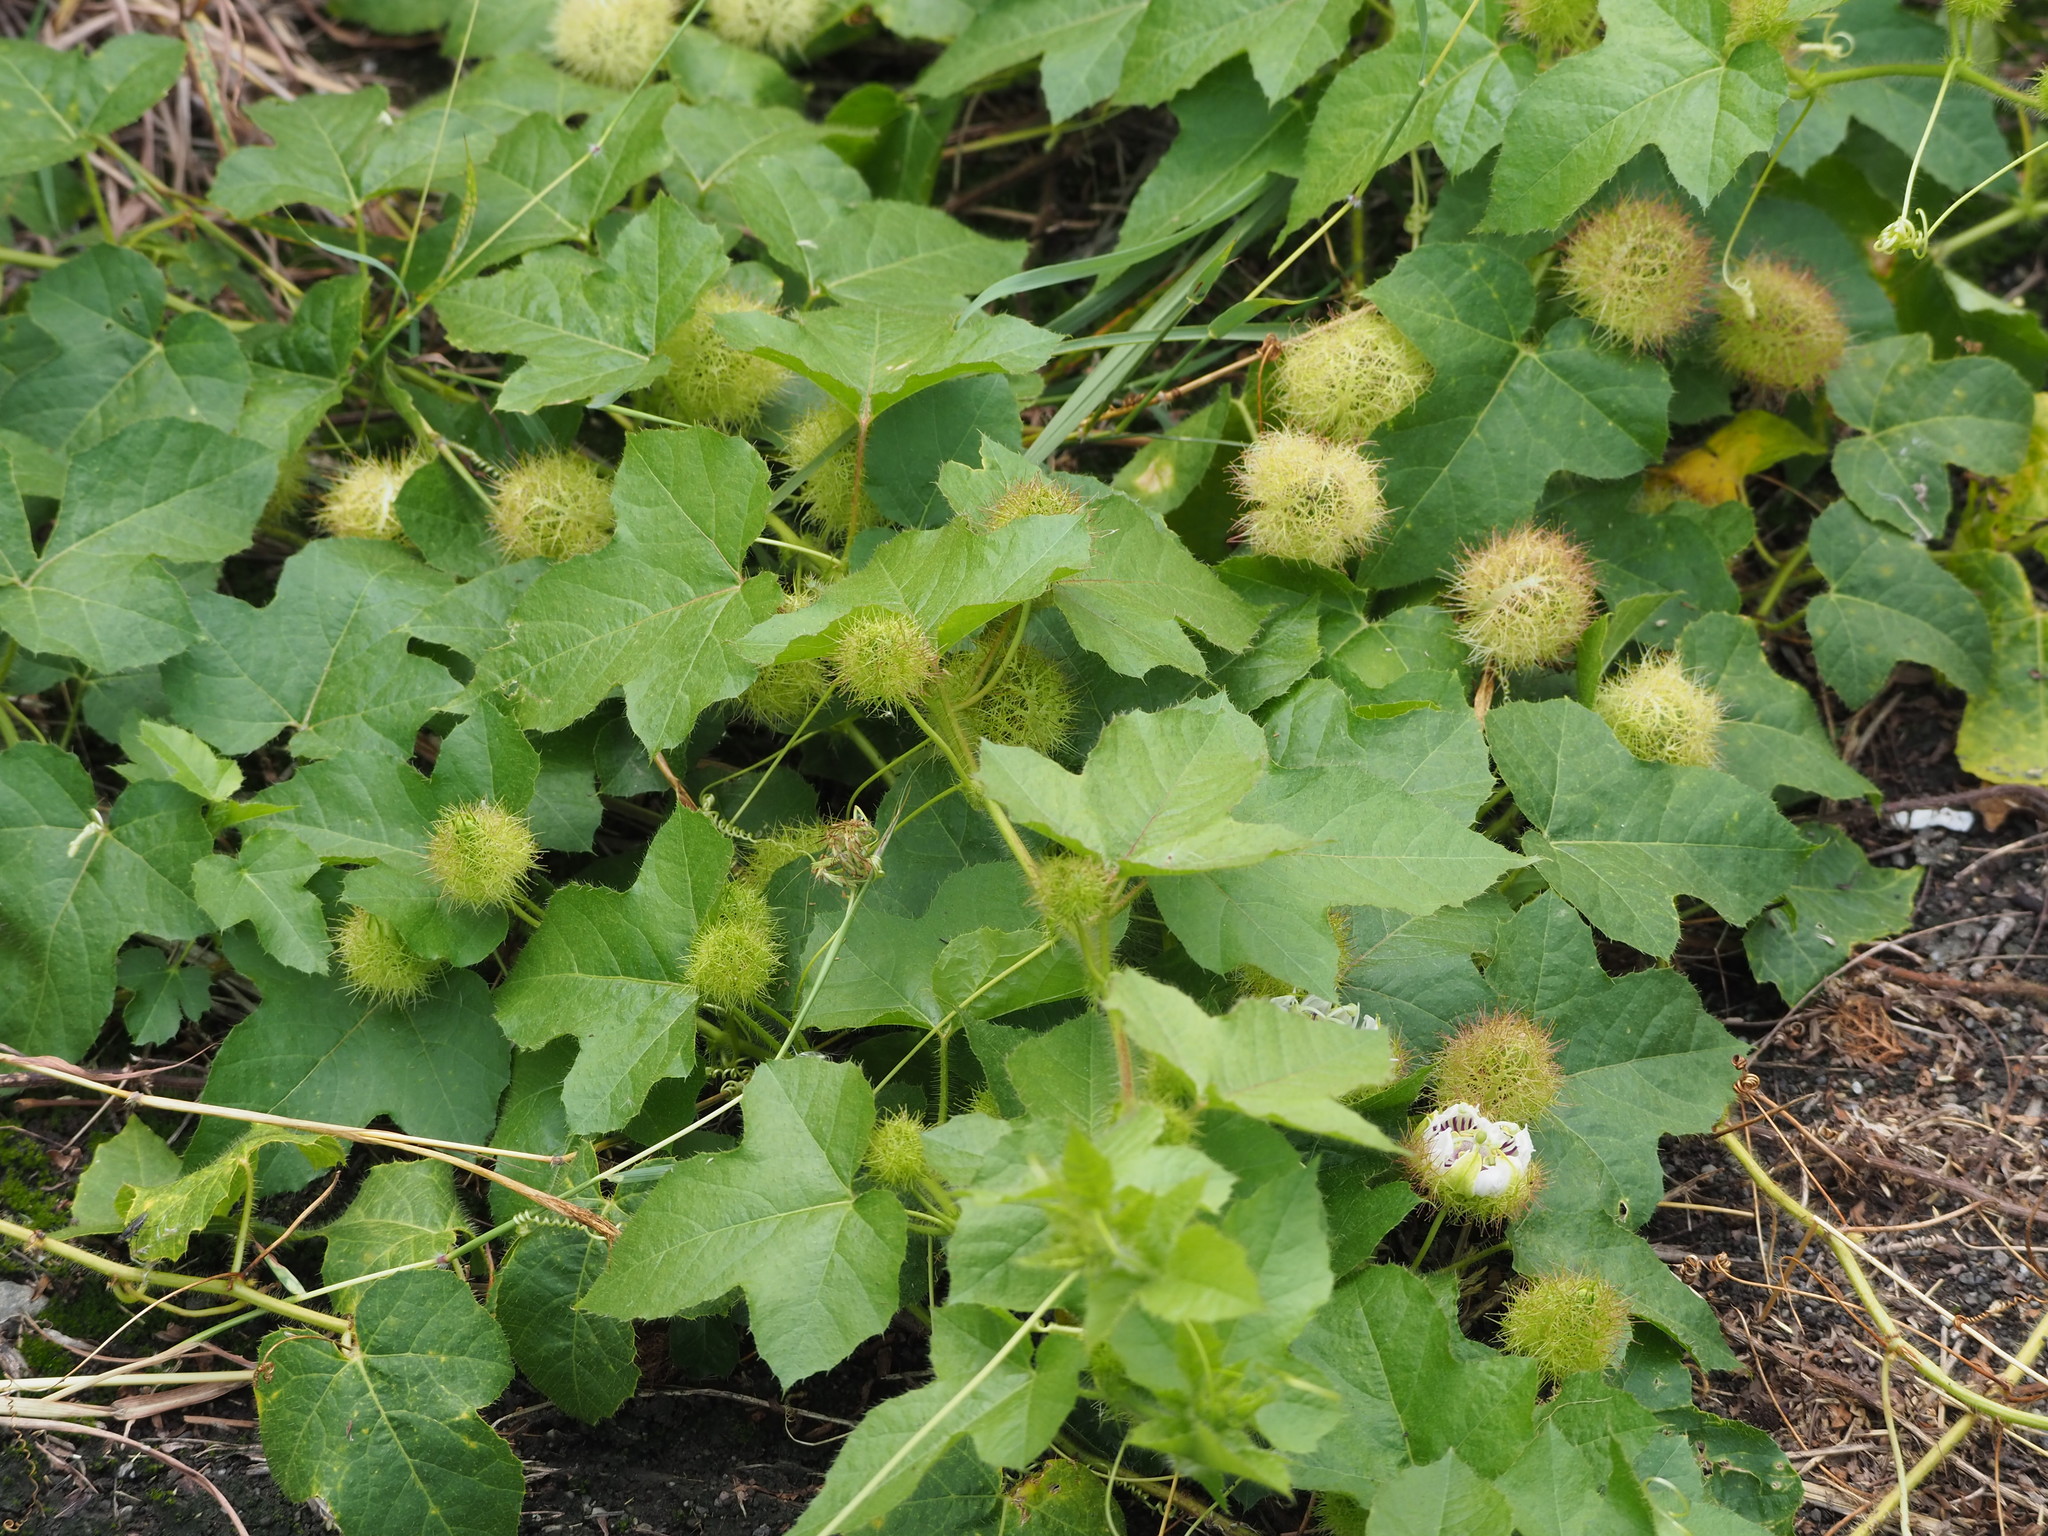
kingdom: Plantae
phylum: Tracheophyta
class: Magnoliopsida
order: Malpighiales
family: Passifloraceae
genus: Passiflora
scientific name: Passiflora vesicaria
